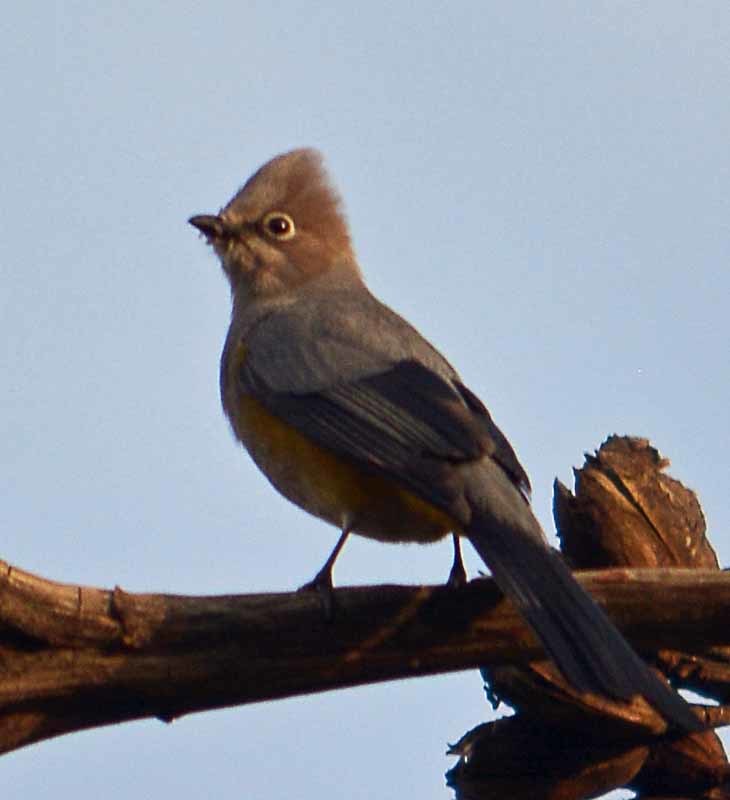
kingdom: Animalia
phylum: Chordata
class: Aves
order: Passeriformes
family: Ptilogonatidae
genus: Ptilogonys
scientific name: Ptilogonys cinereus
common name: Gray silky-flycatcher
